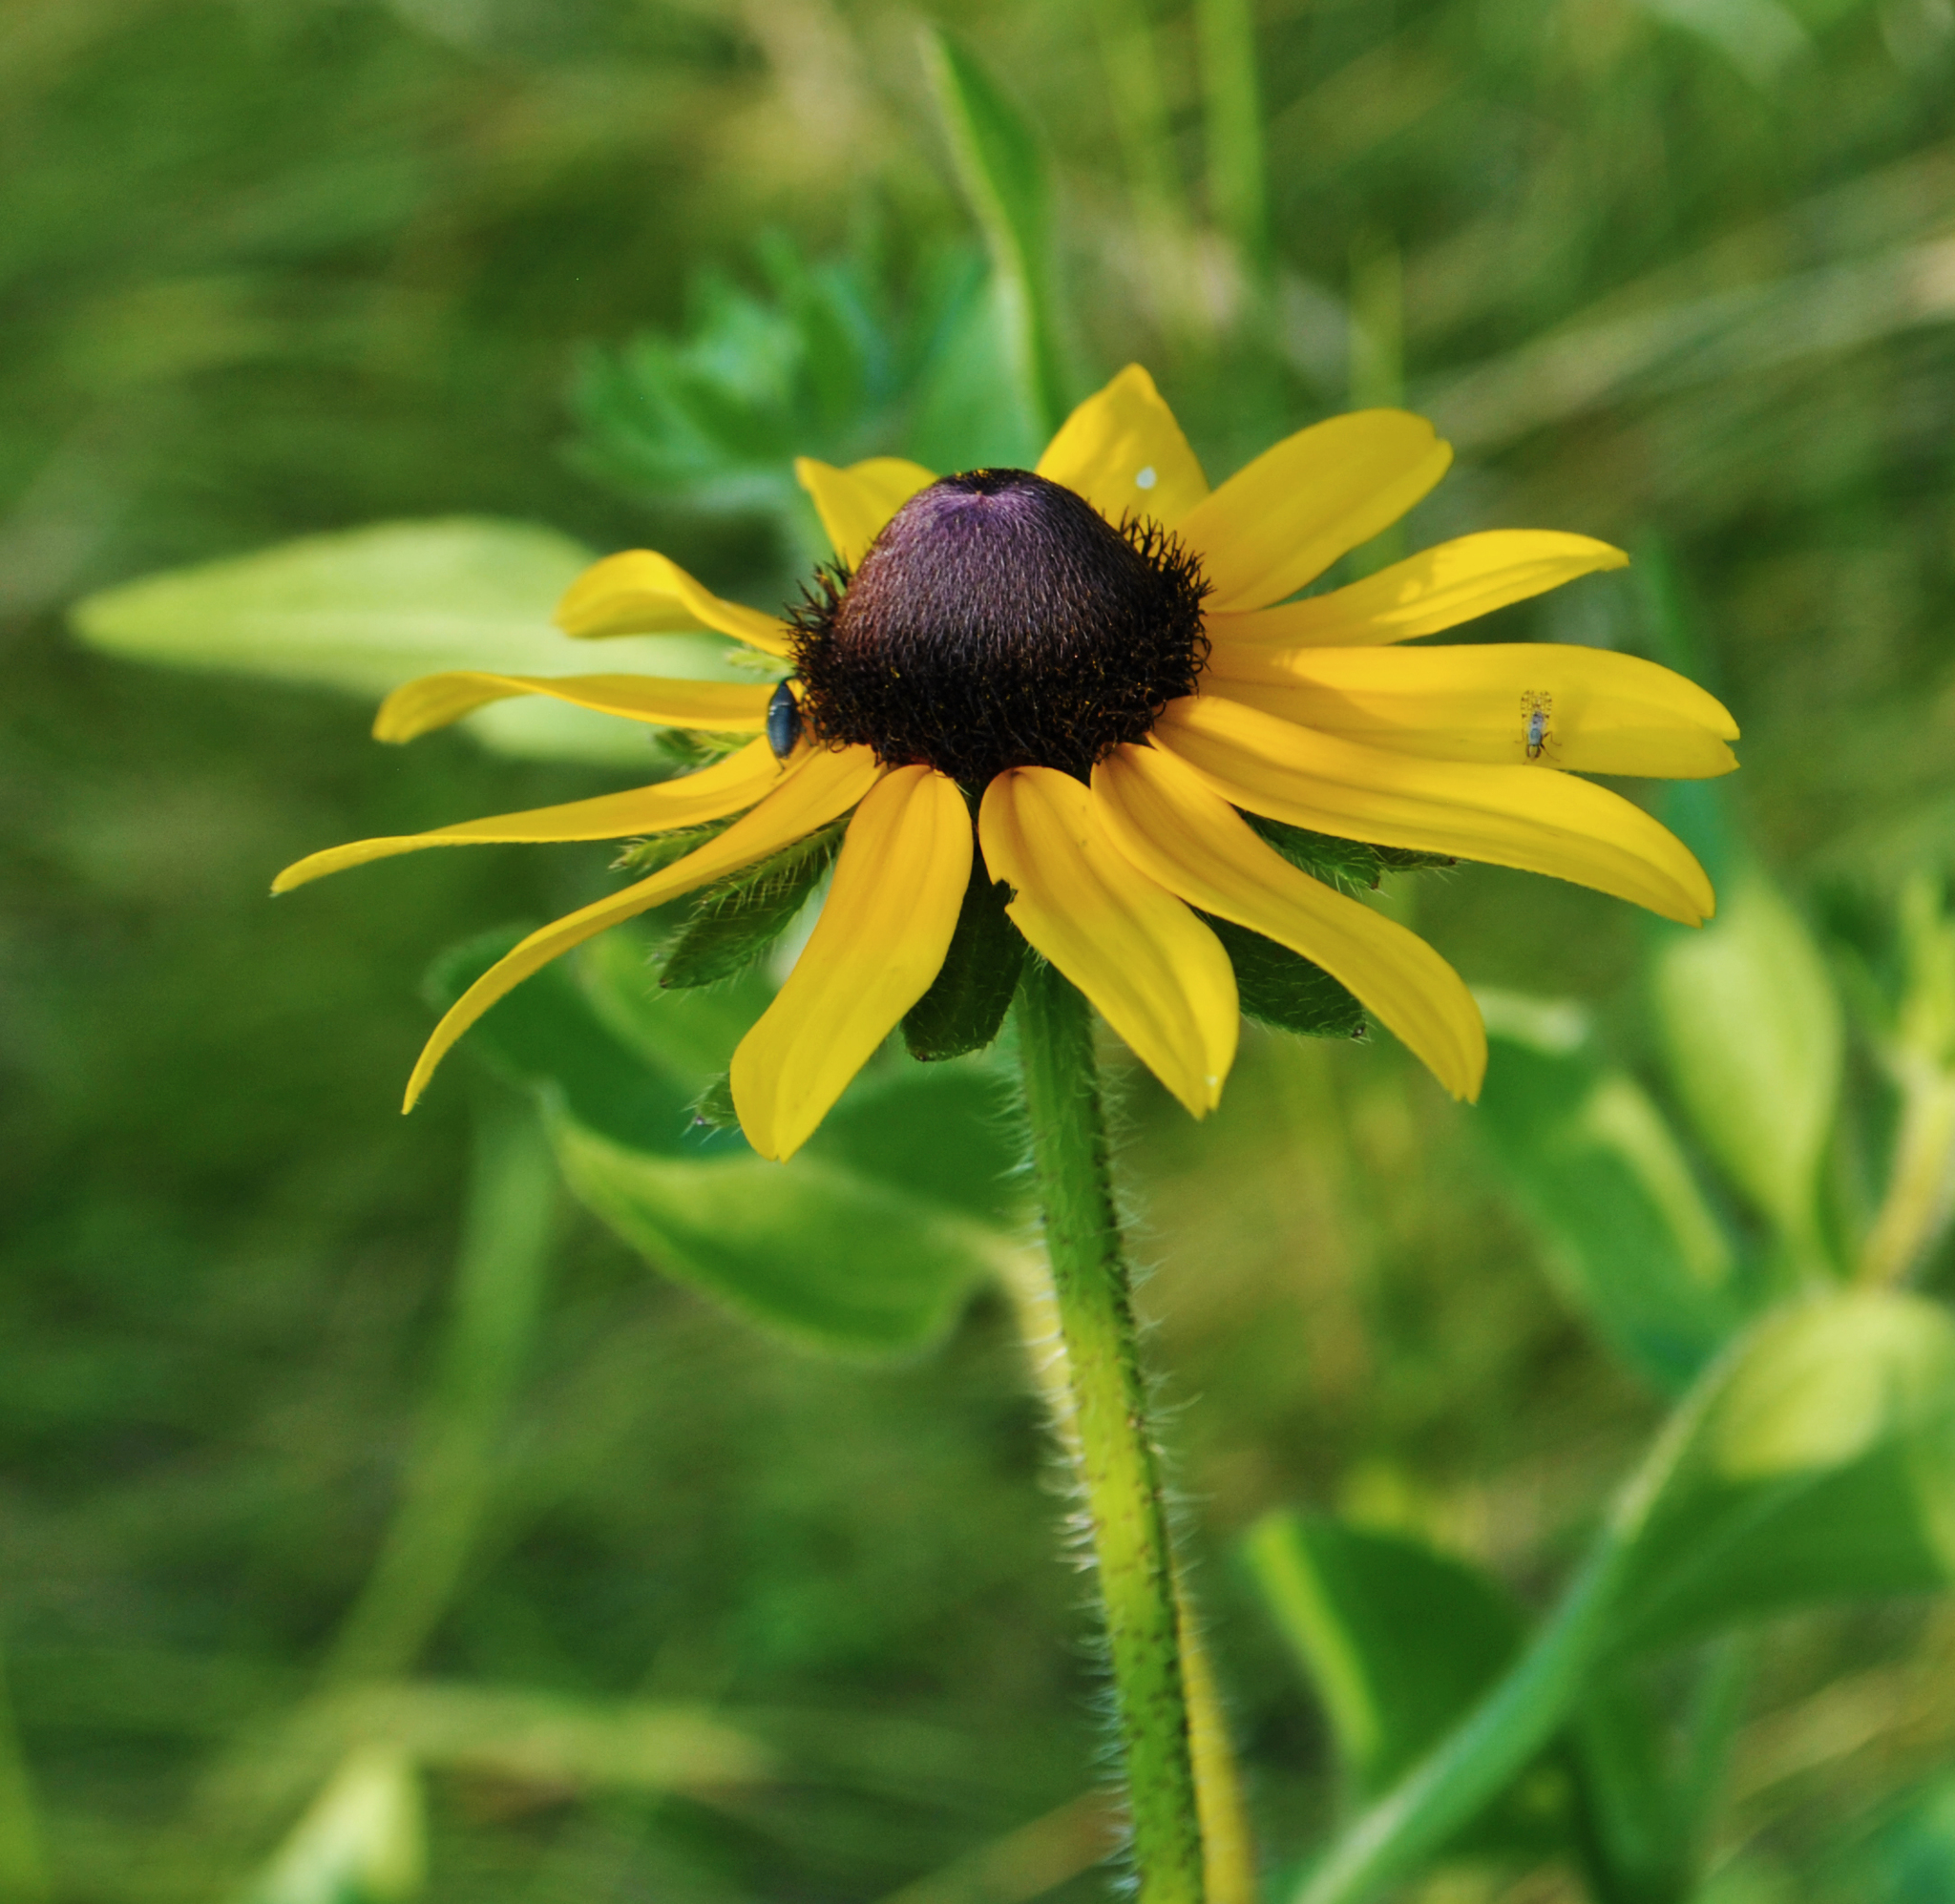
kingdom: Plantae
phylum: Tracheophyta
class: Magnoliopsida
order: Asterales
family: Asteraceae
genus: Rudbeckia
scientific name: Rudbeckia hirta
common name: Black-eyed-susan
